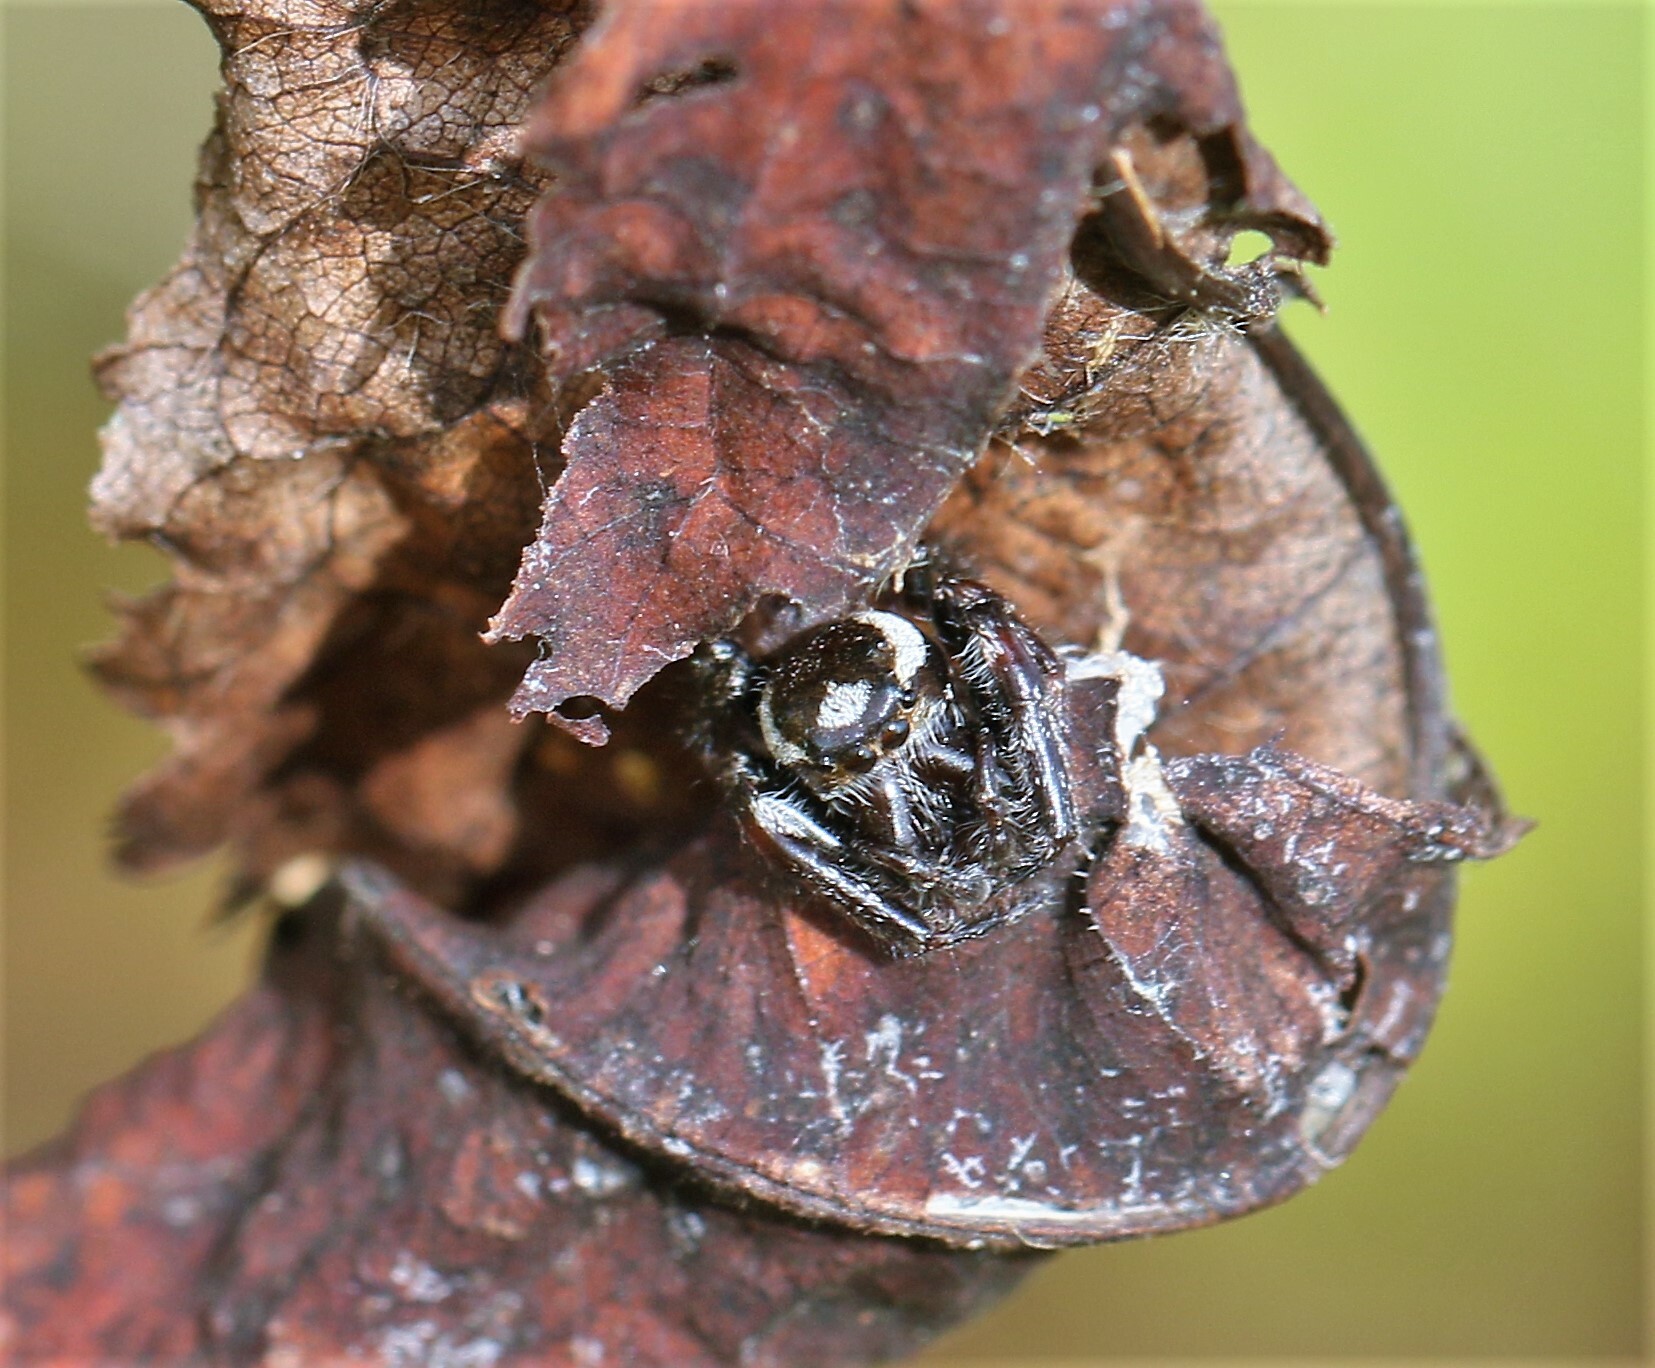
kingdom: Animalia
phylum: Arthropoda
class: Arachnida
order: Araneae
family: Salticidae
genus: Eris
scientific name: Eris militaris
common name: Bronze jumper
